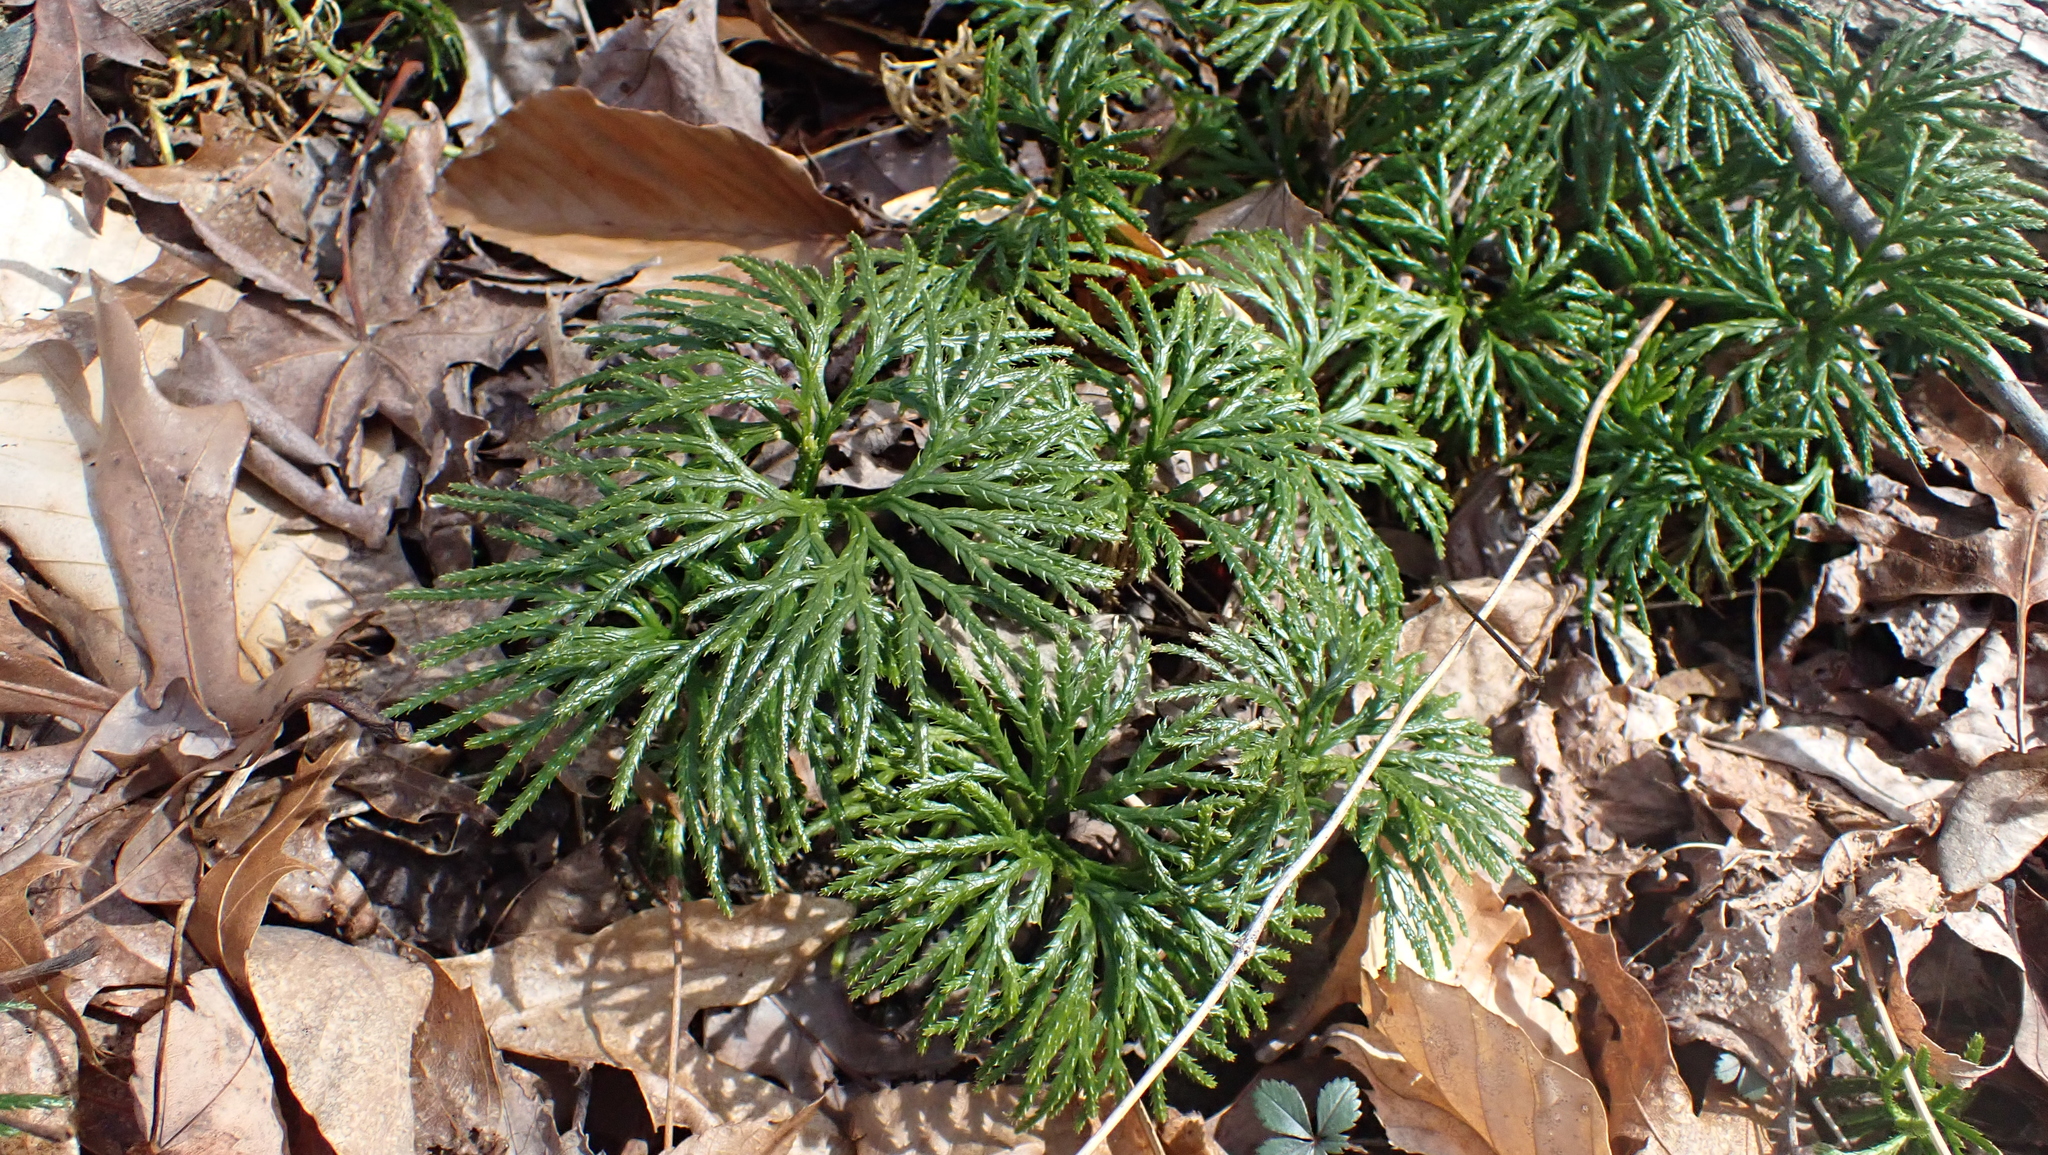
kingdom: Plantae
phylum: Tracheophyta
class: Lycopodiopsida
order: Lycopodiales
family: Lycopodiaceae
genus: Diphasiastrum
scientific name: Diphasiastrum digitatum
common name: Southern running-pine
